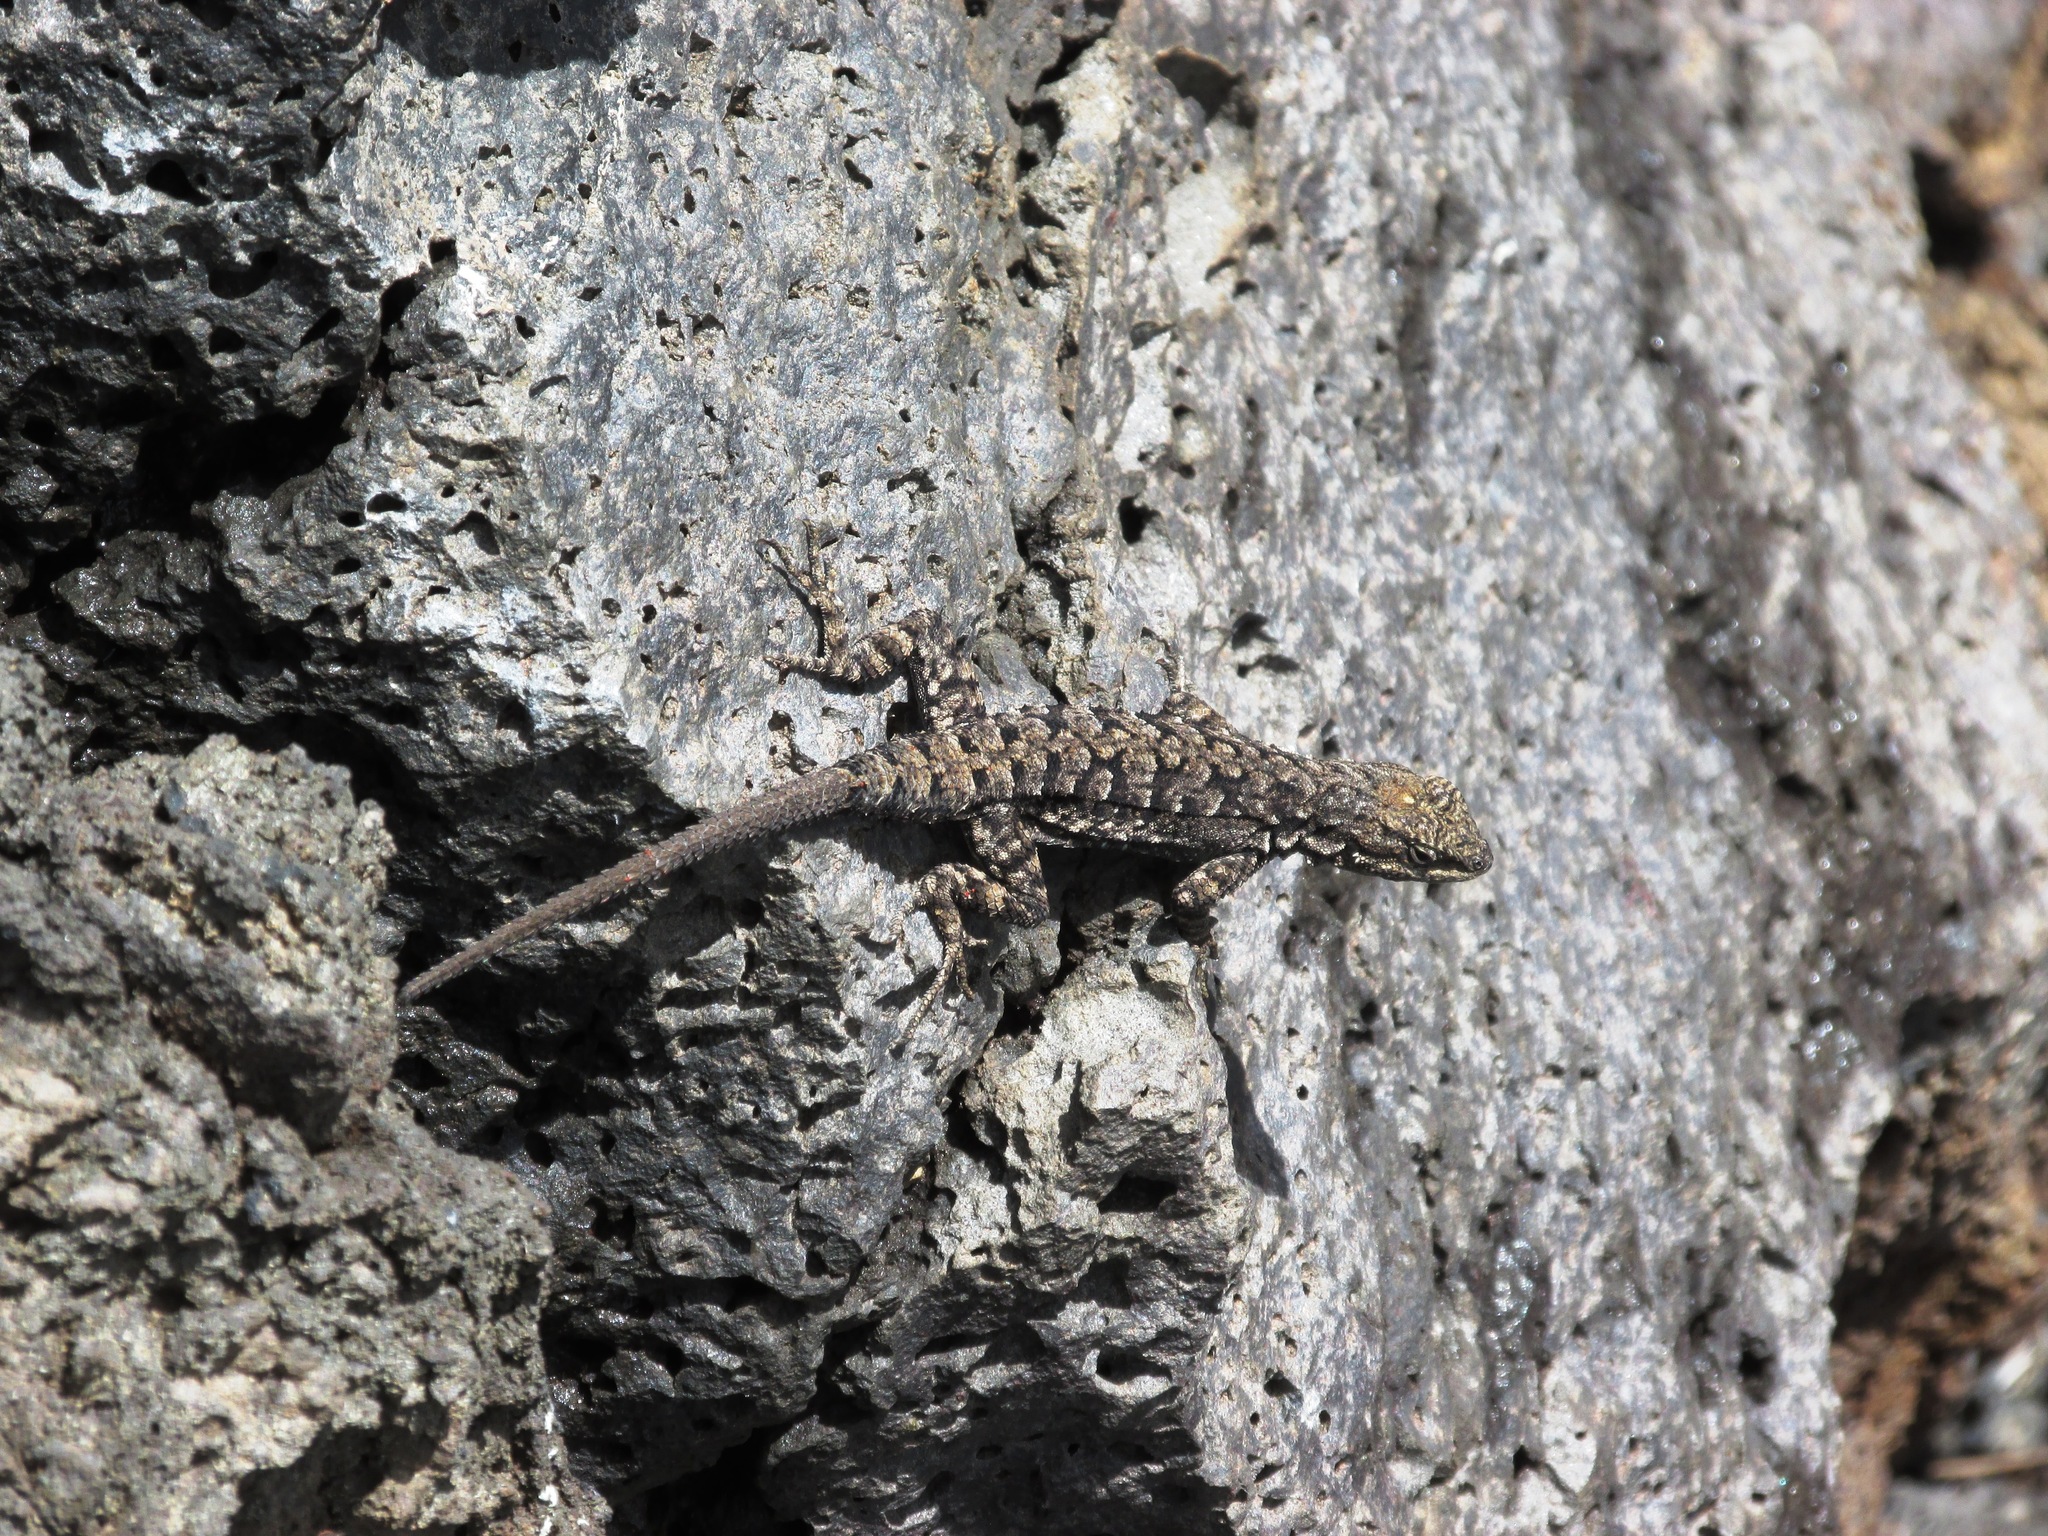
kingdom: Animalia
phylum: Chordata
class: Squamata
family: Phrynosomatidae
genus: Urosaurus
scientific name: Urosaurus ornatus
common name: Ornate tree lizard
